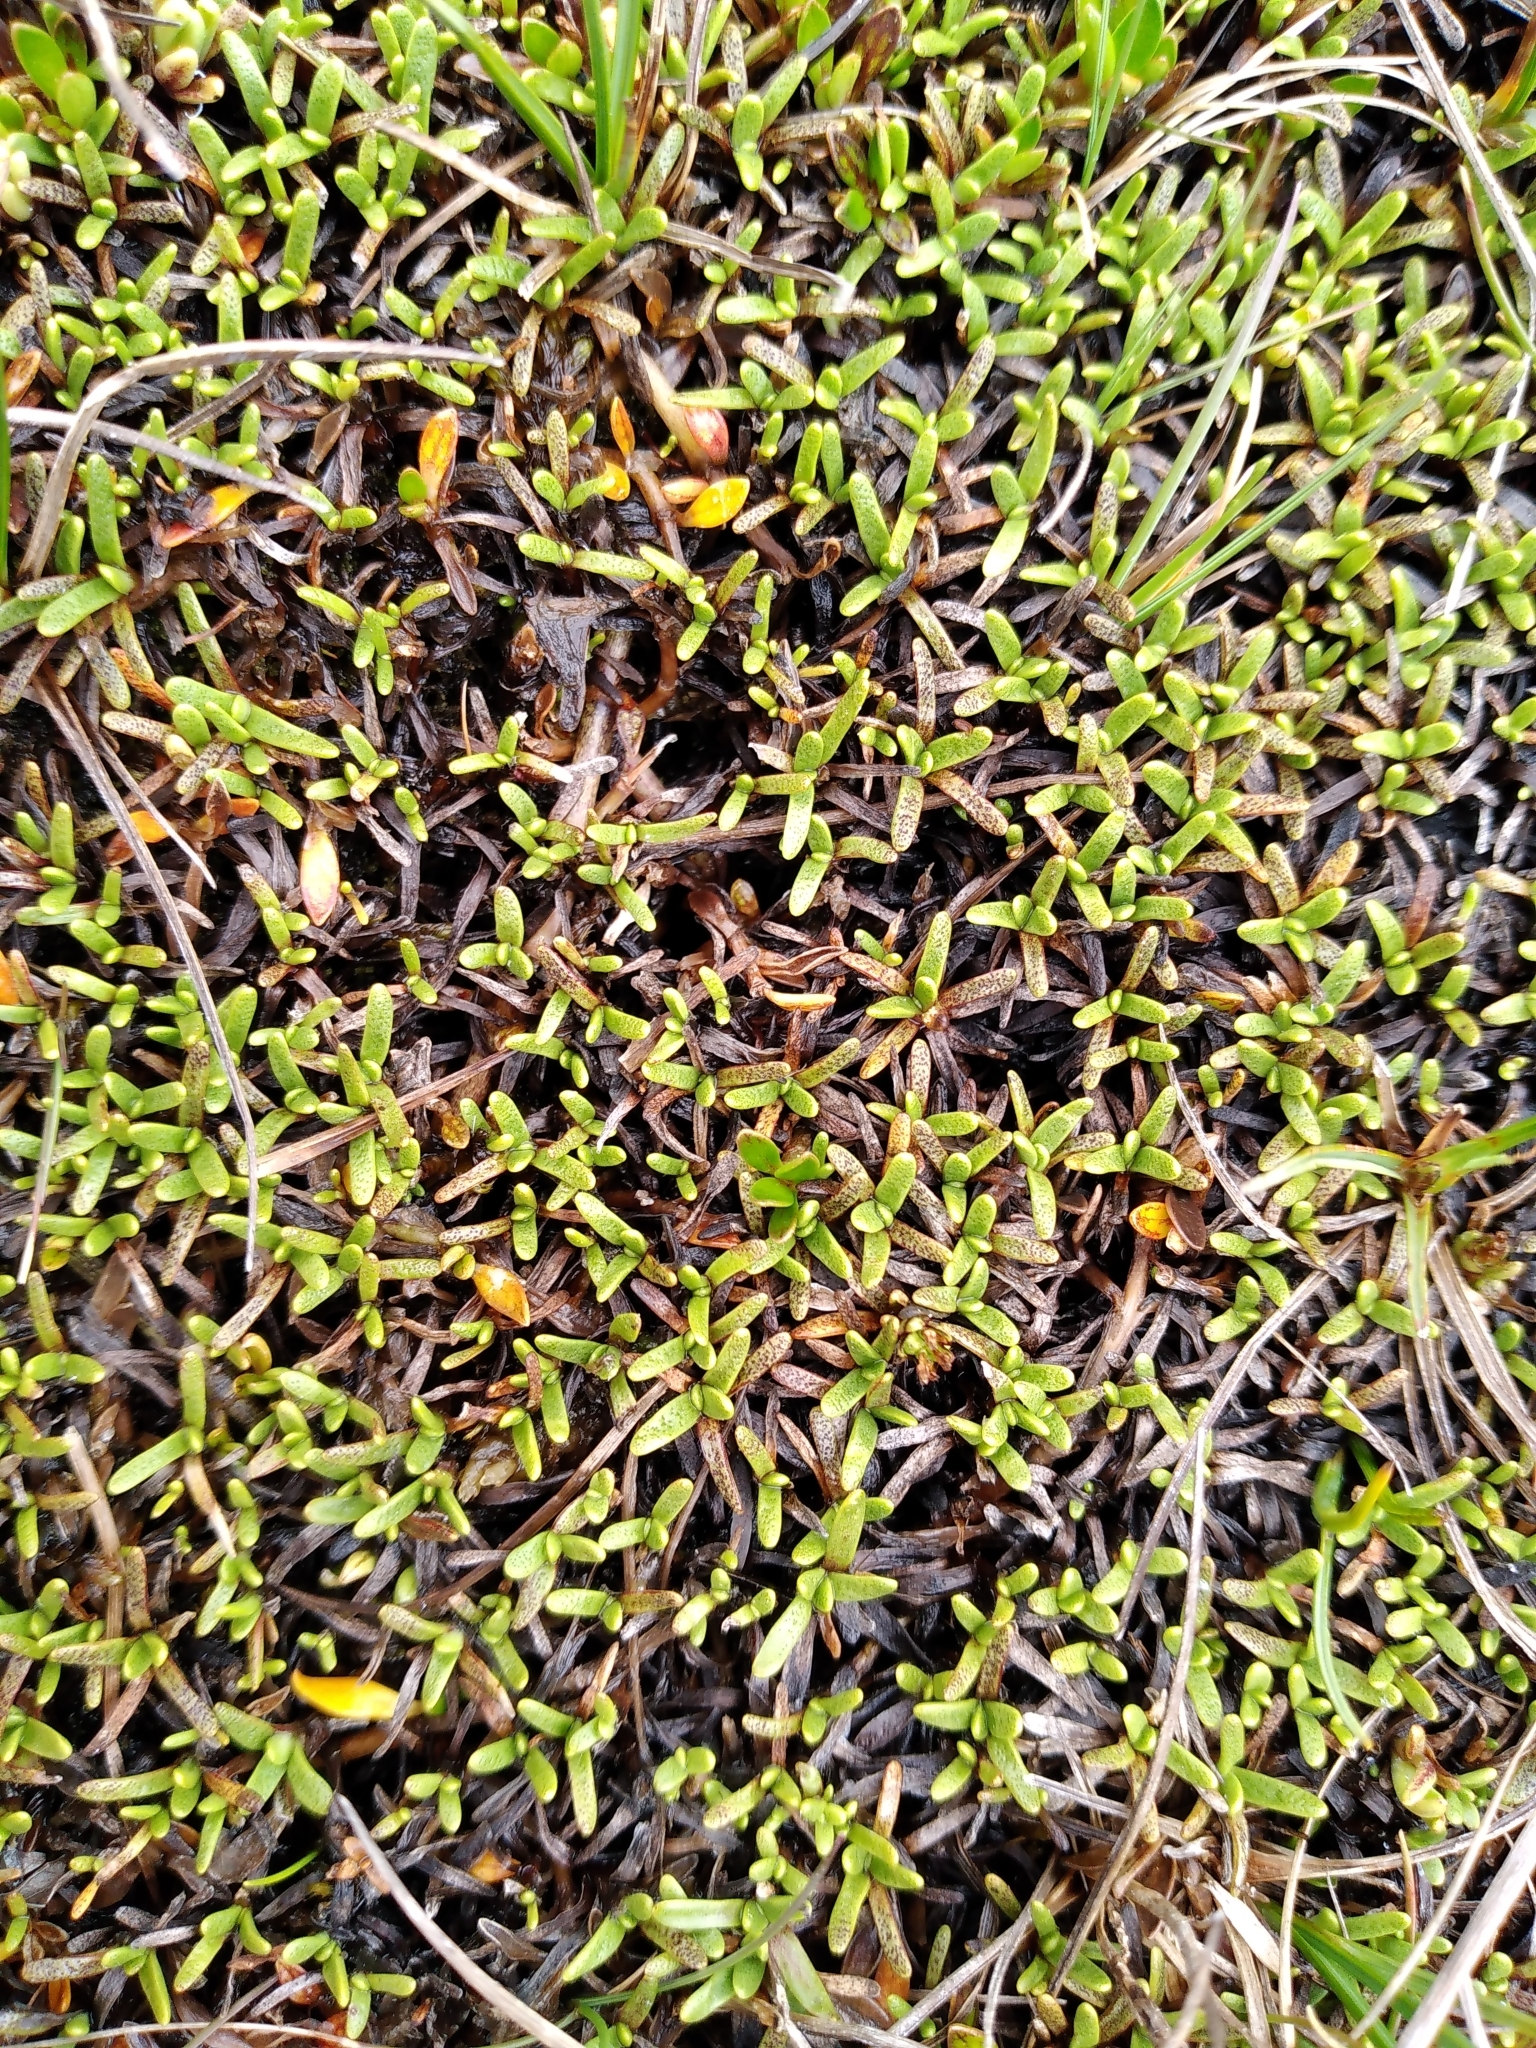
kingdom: Plantae
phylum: Tracheophyta
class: Magnoliopsida
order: Asterales
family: Asteraceae
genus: Abrotanella
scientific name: Abrotanella caespitosa
